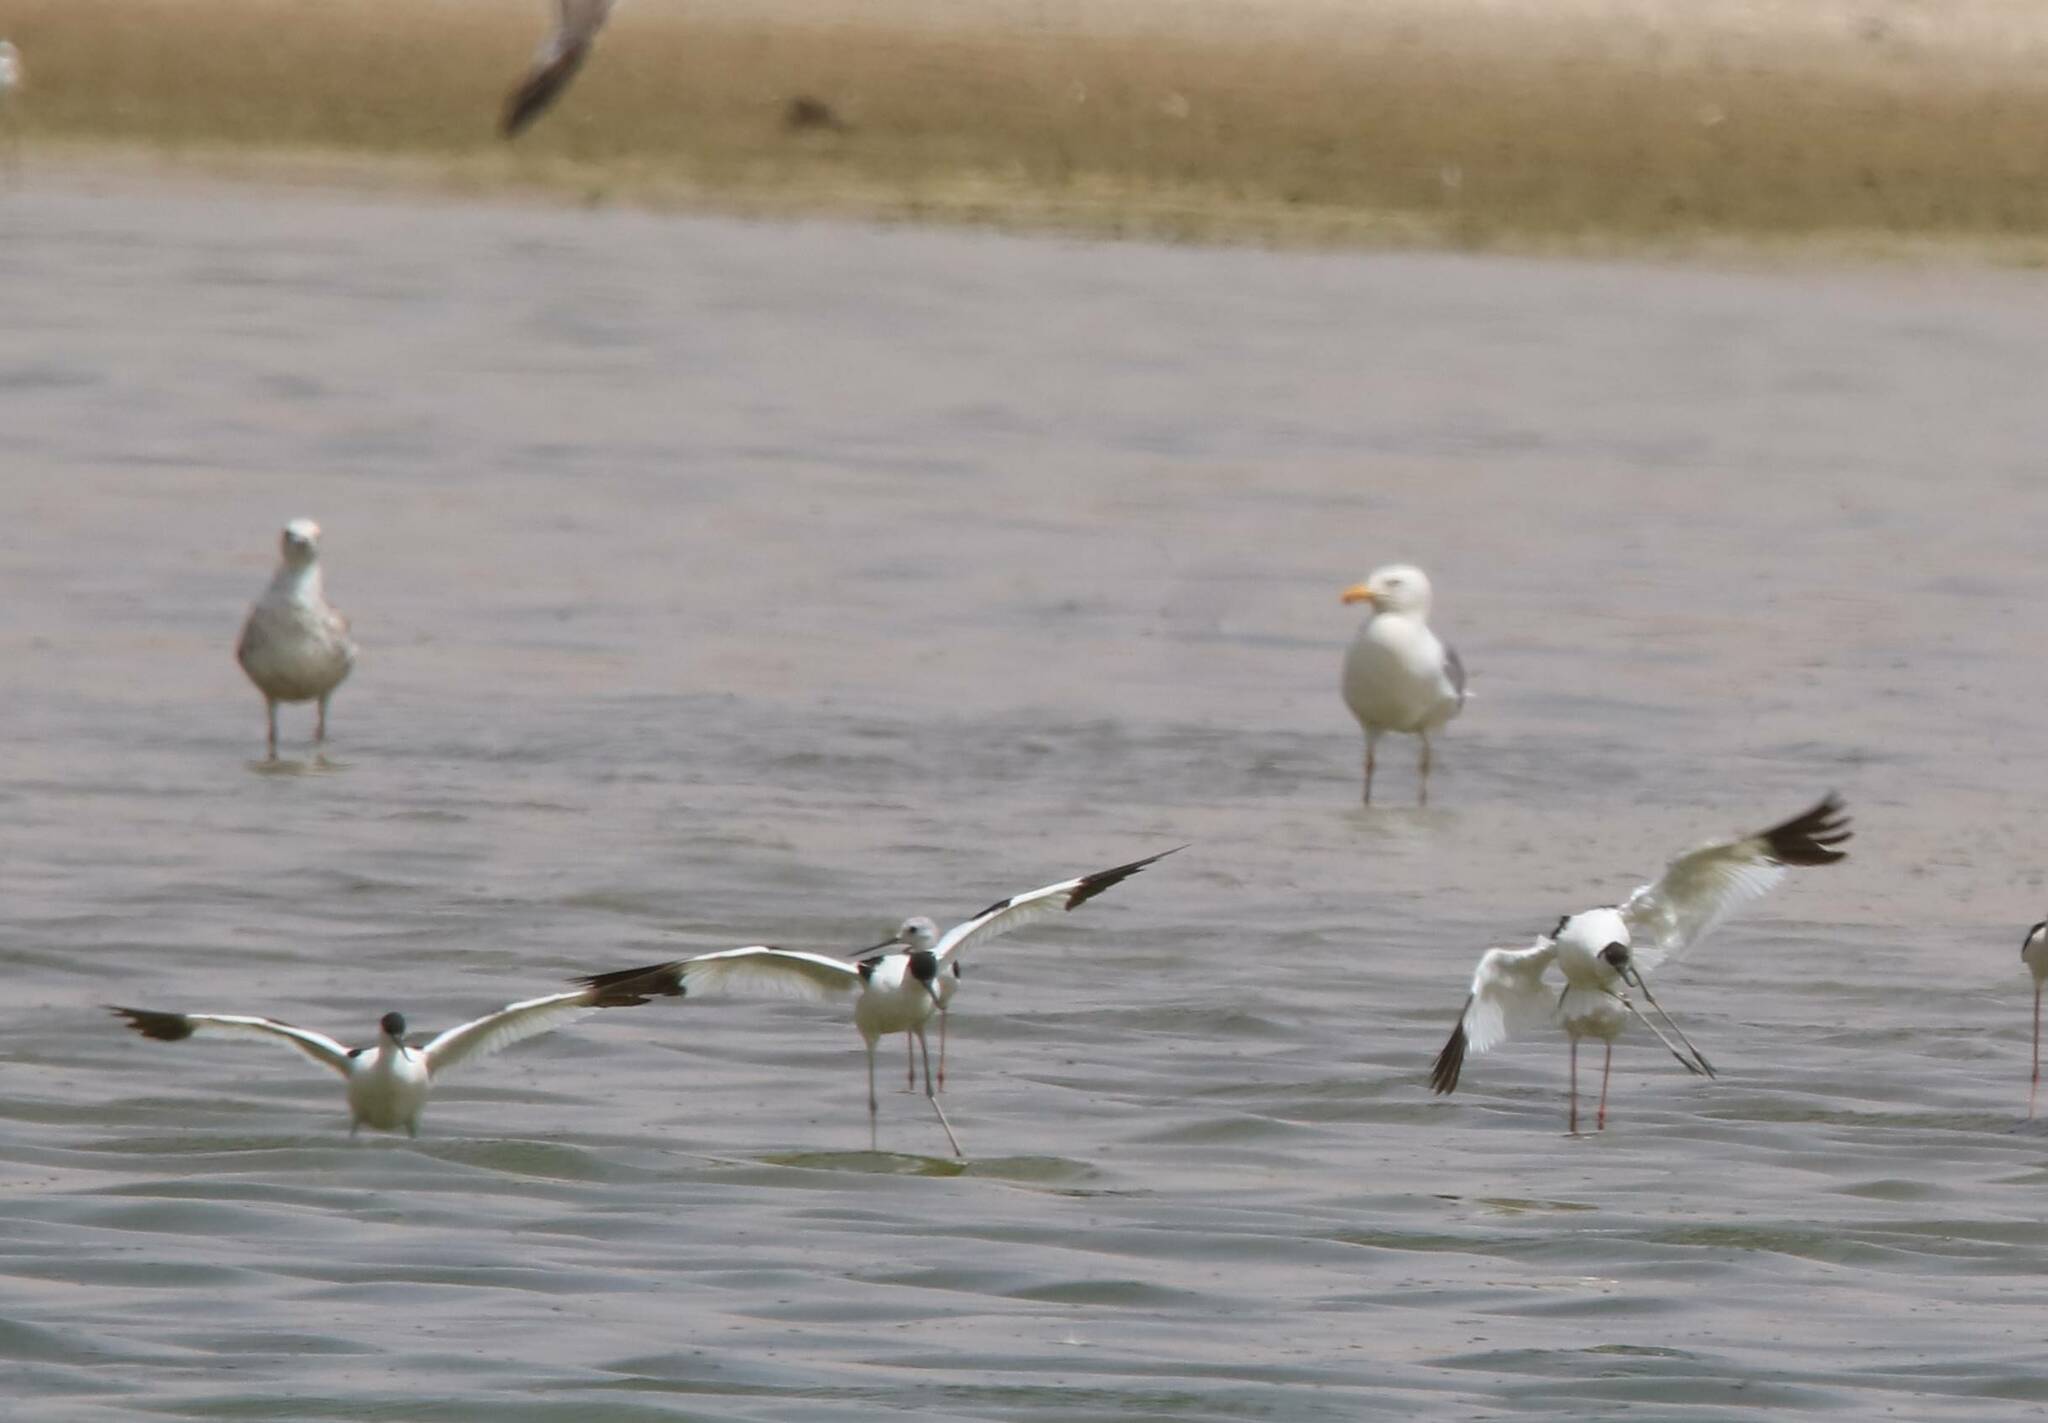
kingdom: Animalia
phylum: Chordata
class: Aves
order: Charadriiformes
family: Recurvirostridae
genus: Recurvirostra
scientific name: Recurvirostra avosetta
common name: Pied avocet
